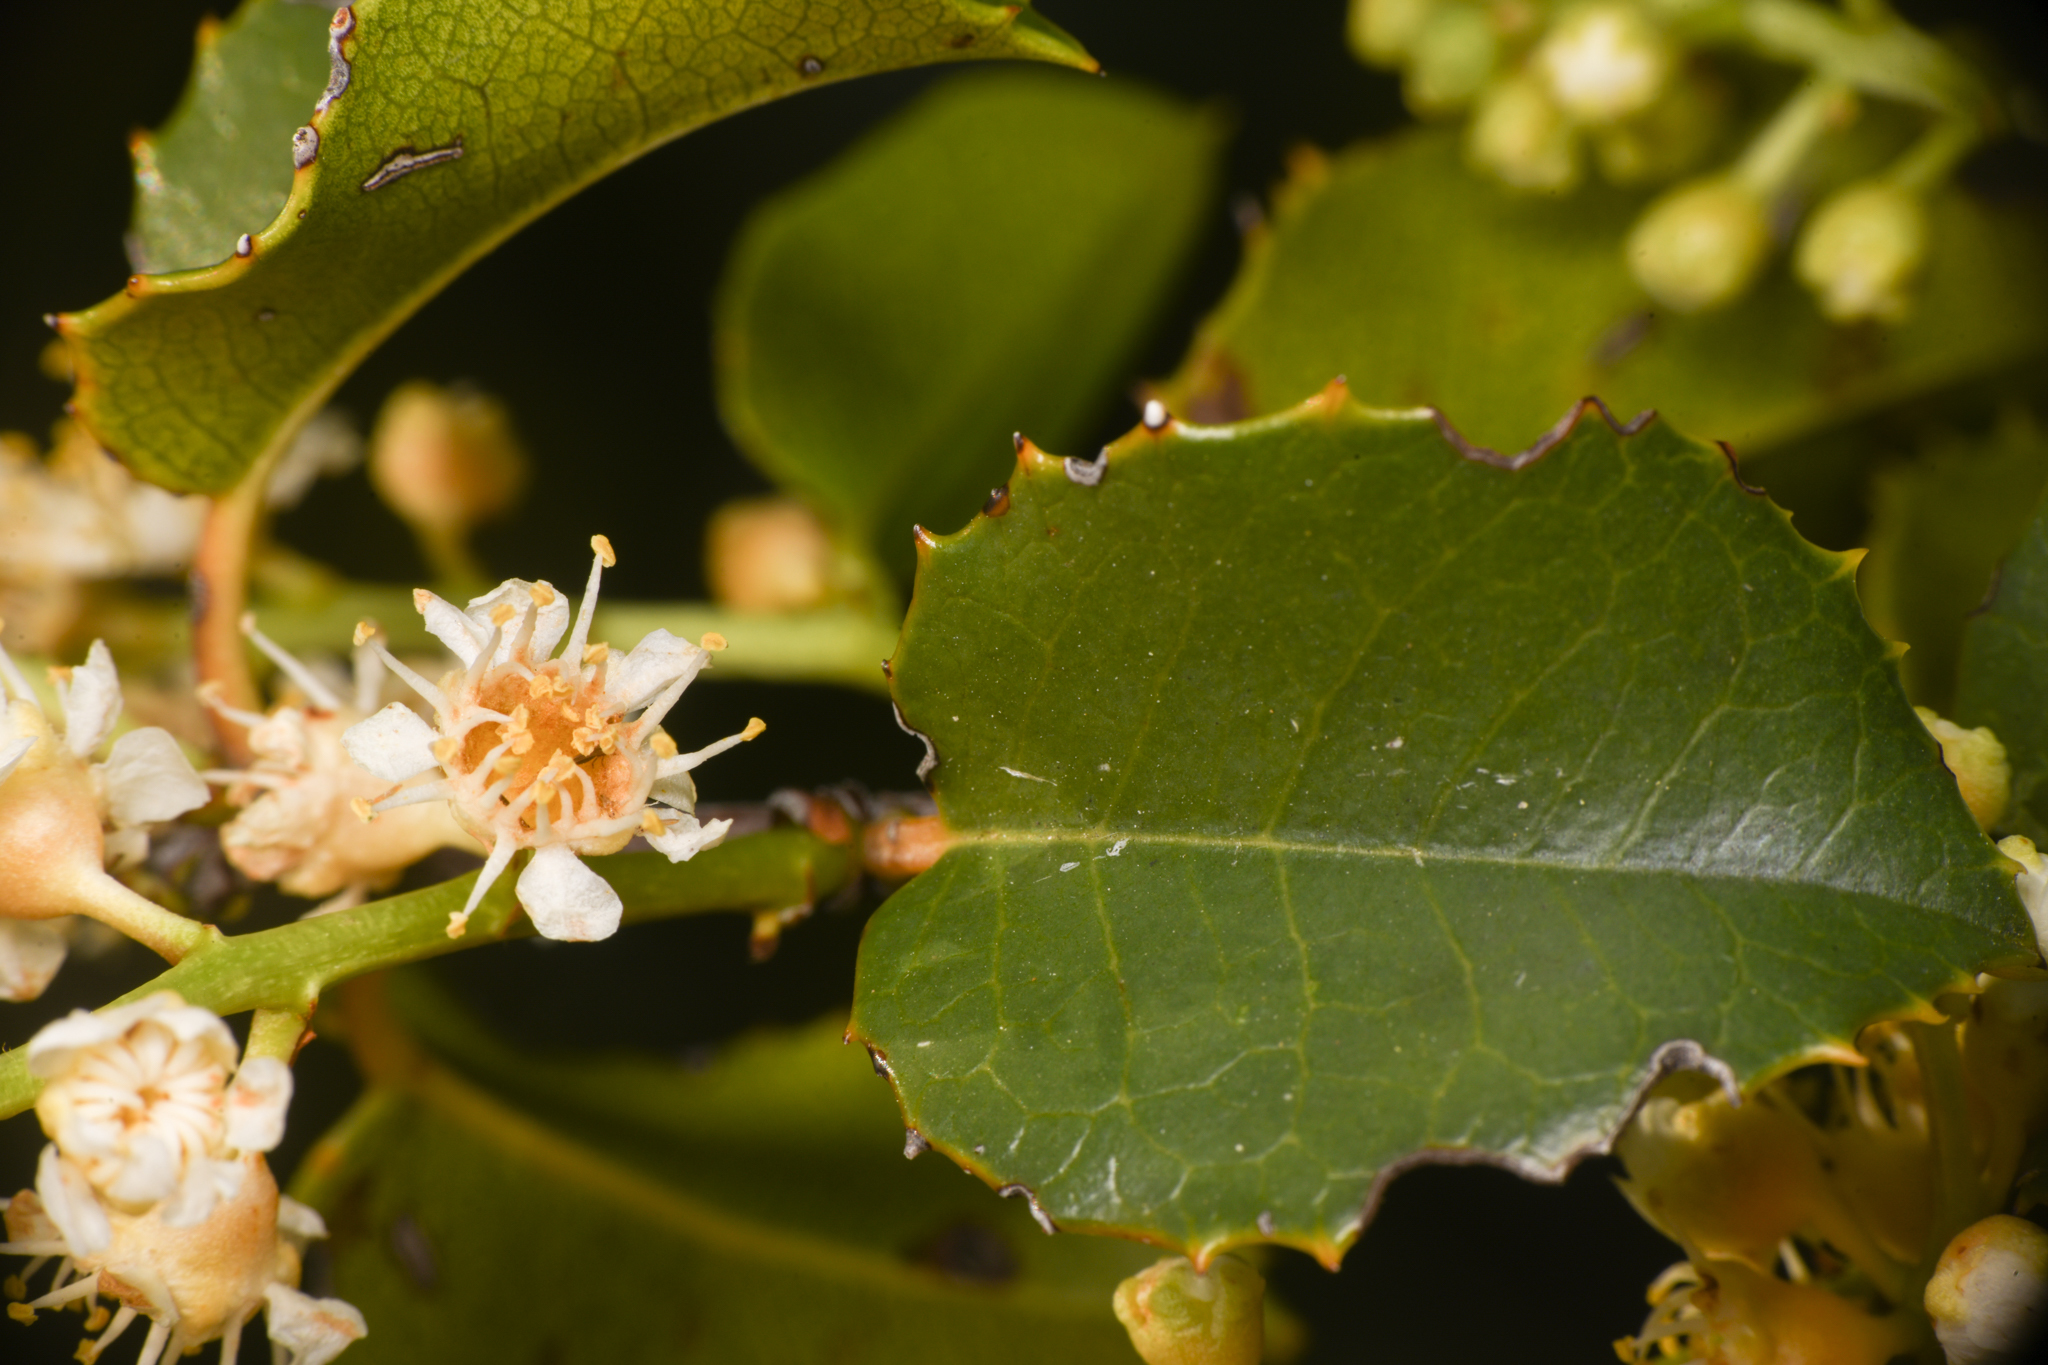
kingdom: Plantae
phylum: Tracheophyta
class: Magnoliopsida
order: Rosales
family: Rosaceae
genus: Prunus
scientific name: Prunus ilicifolia
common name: Hollyleaf cherry
